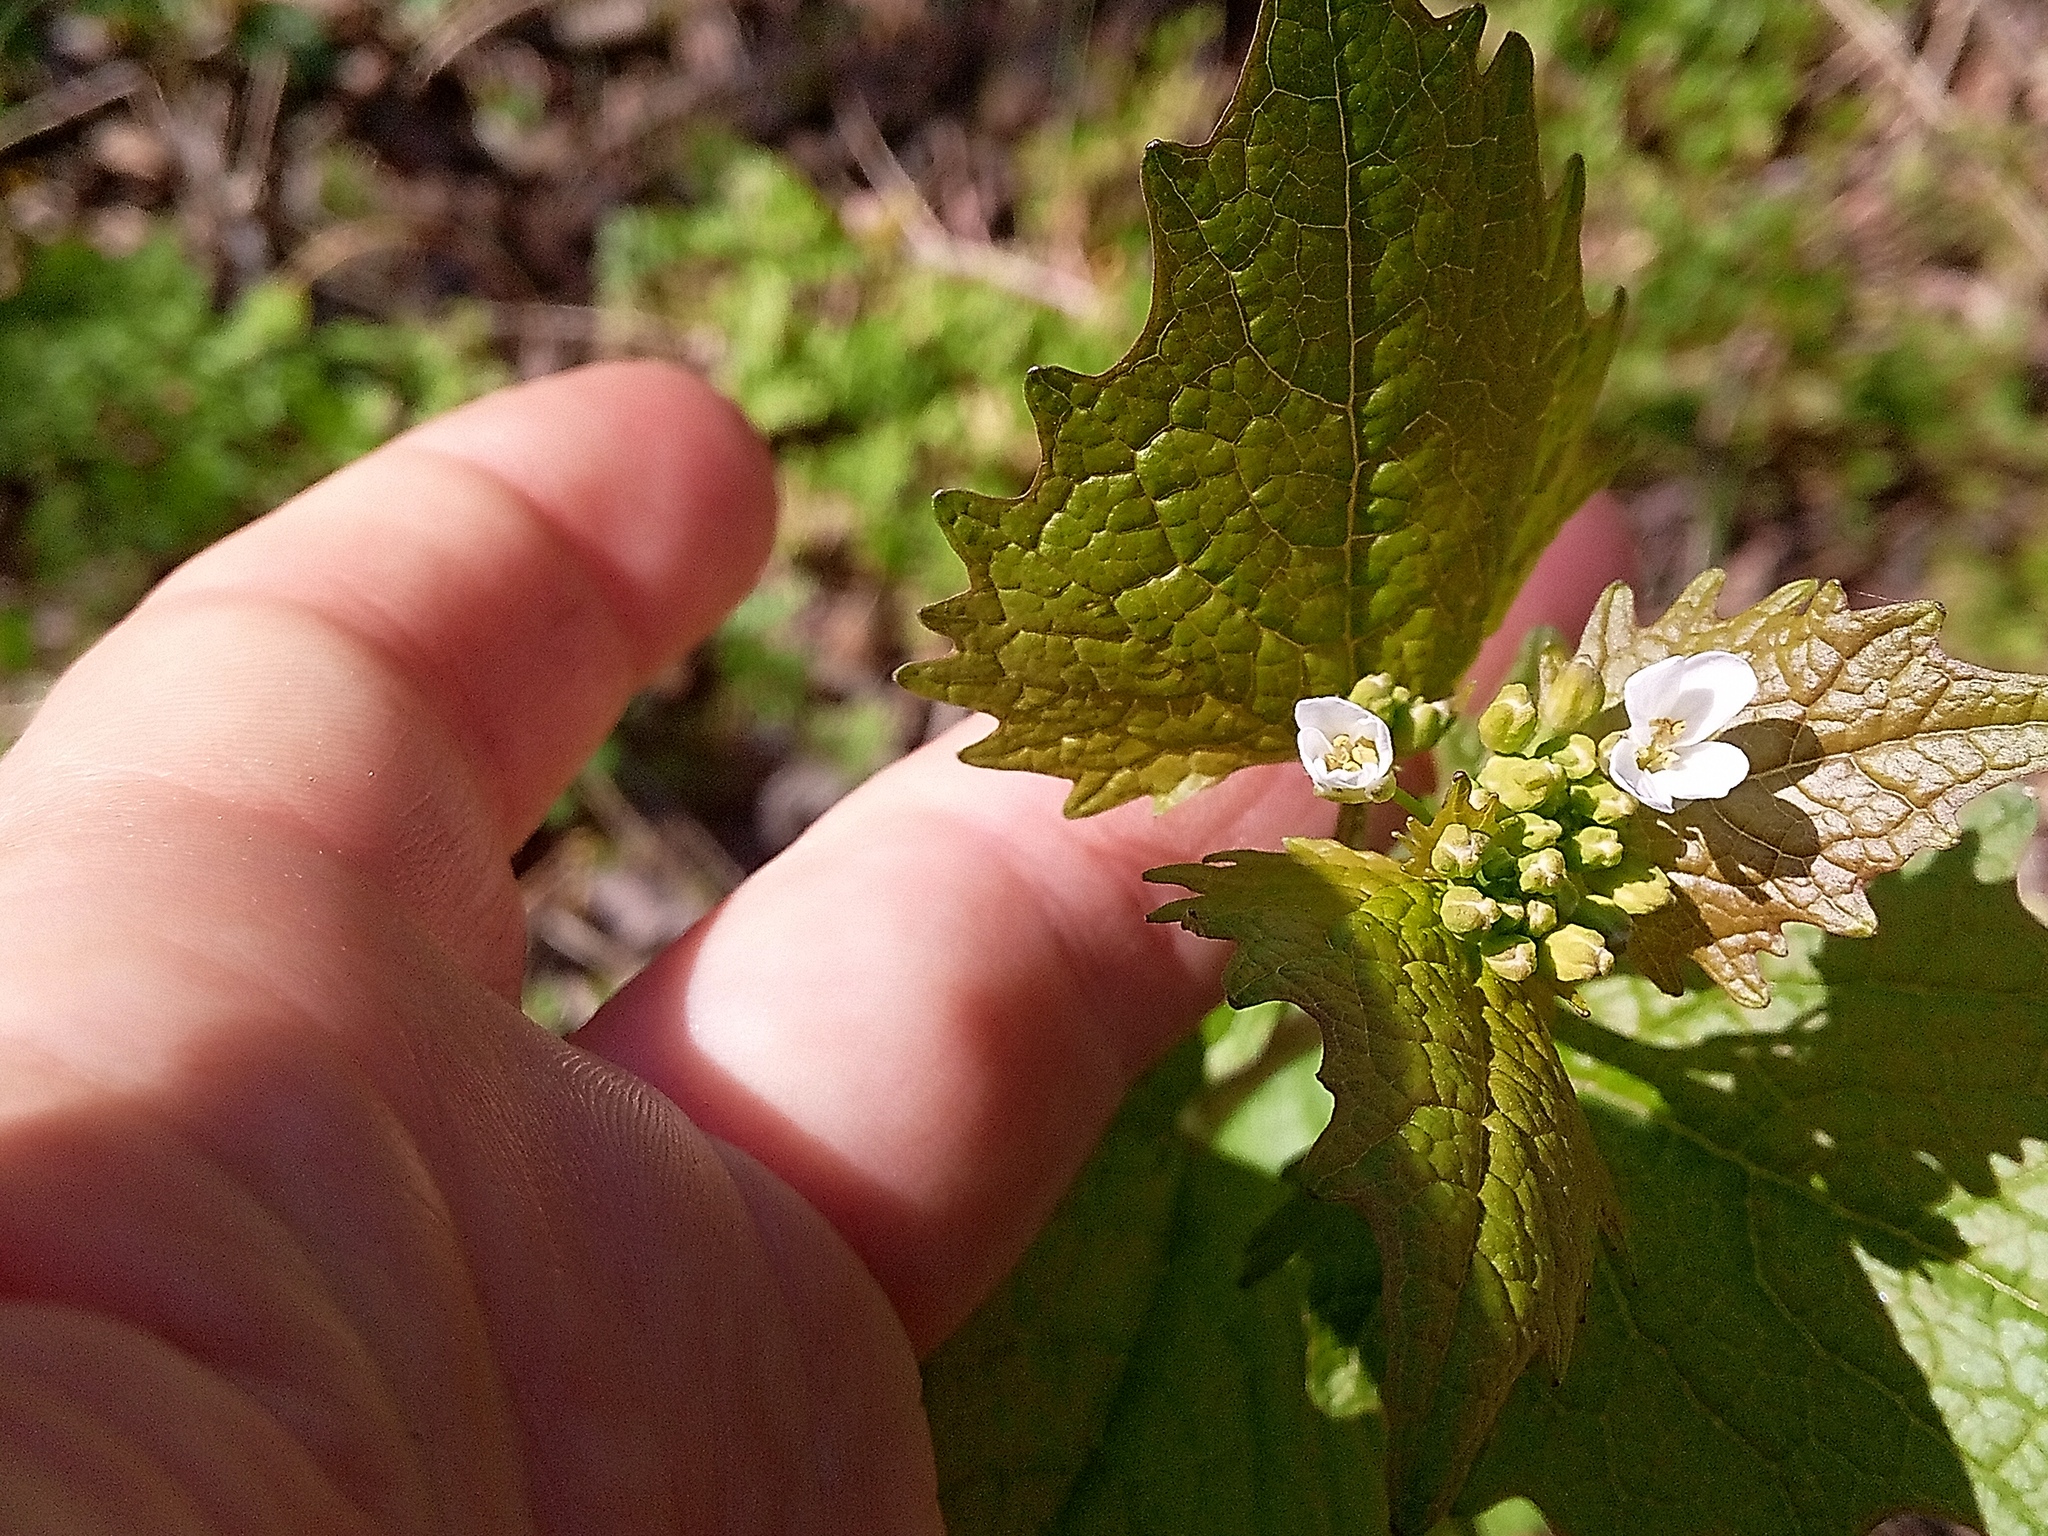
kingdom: Plantae
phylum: Tracheophyta
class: Magnoliopsida
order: Brassicales
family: Brassicaceae
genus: Alliaria
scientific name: Alliaria petiolata
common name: Garlic mustard
